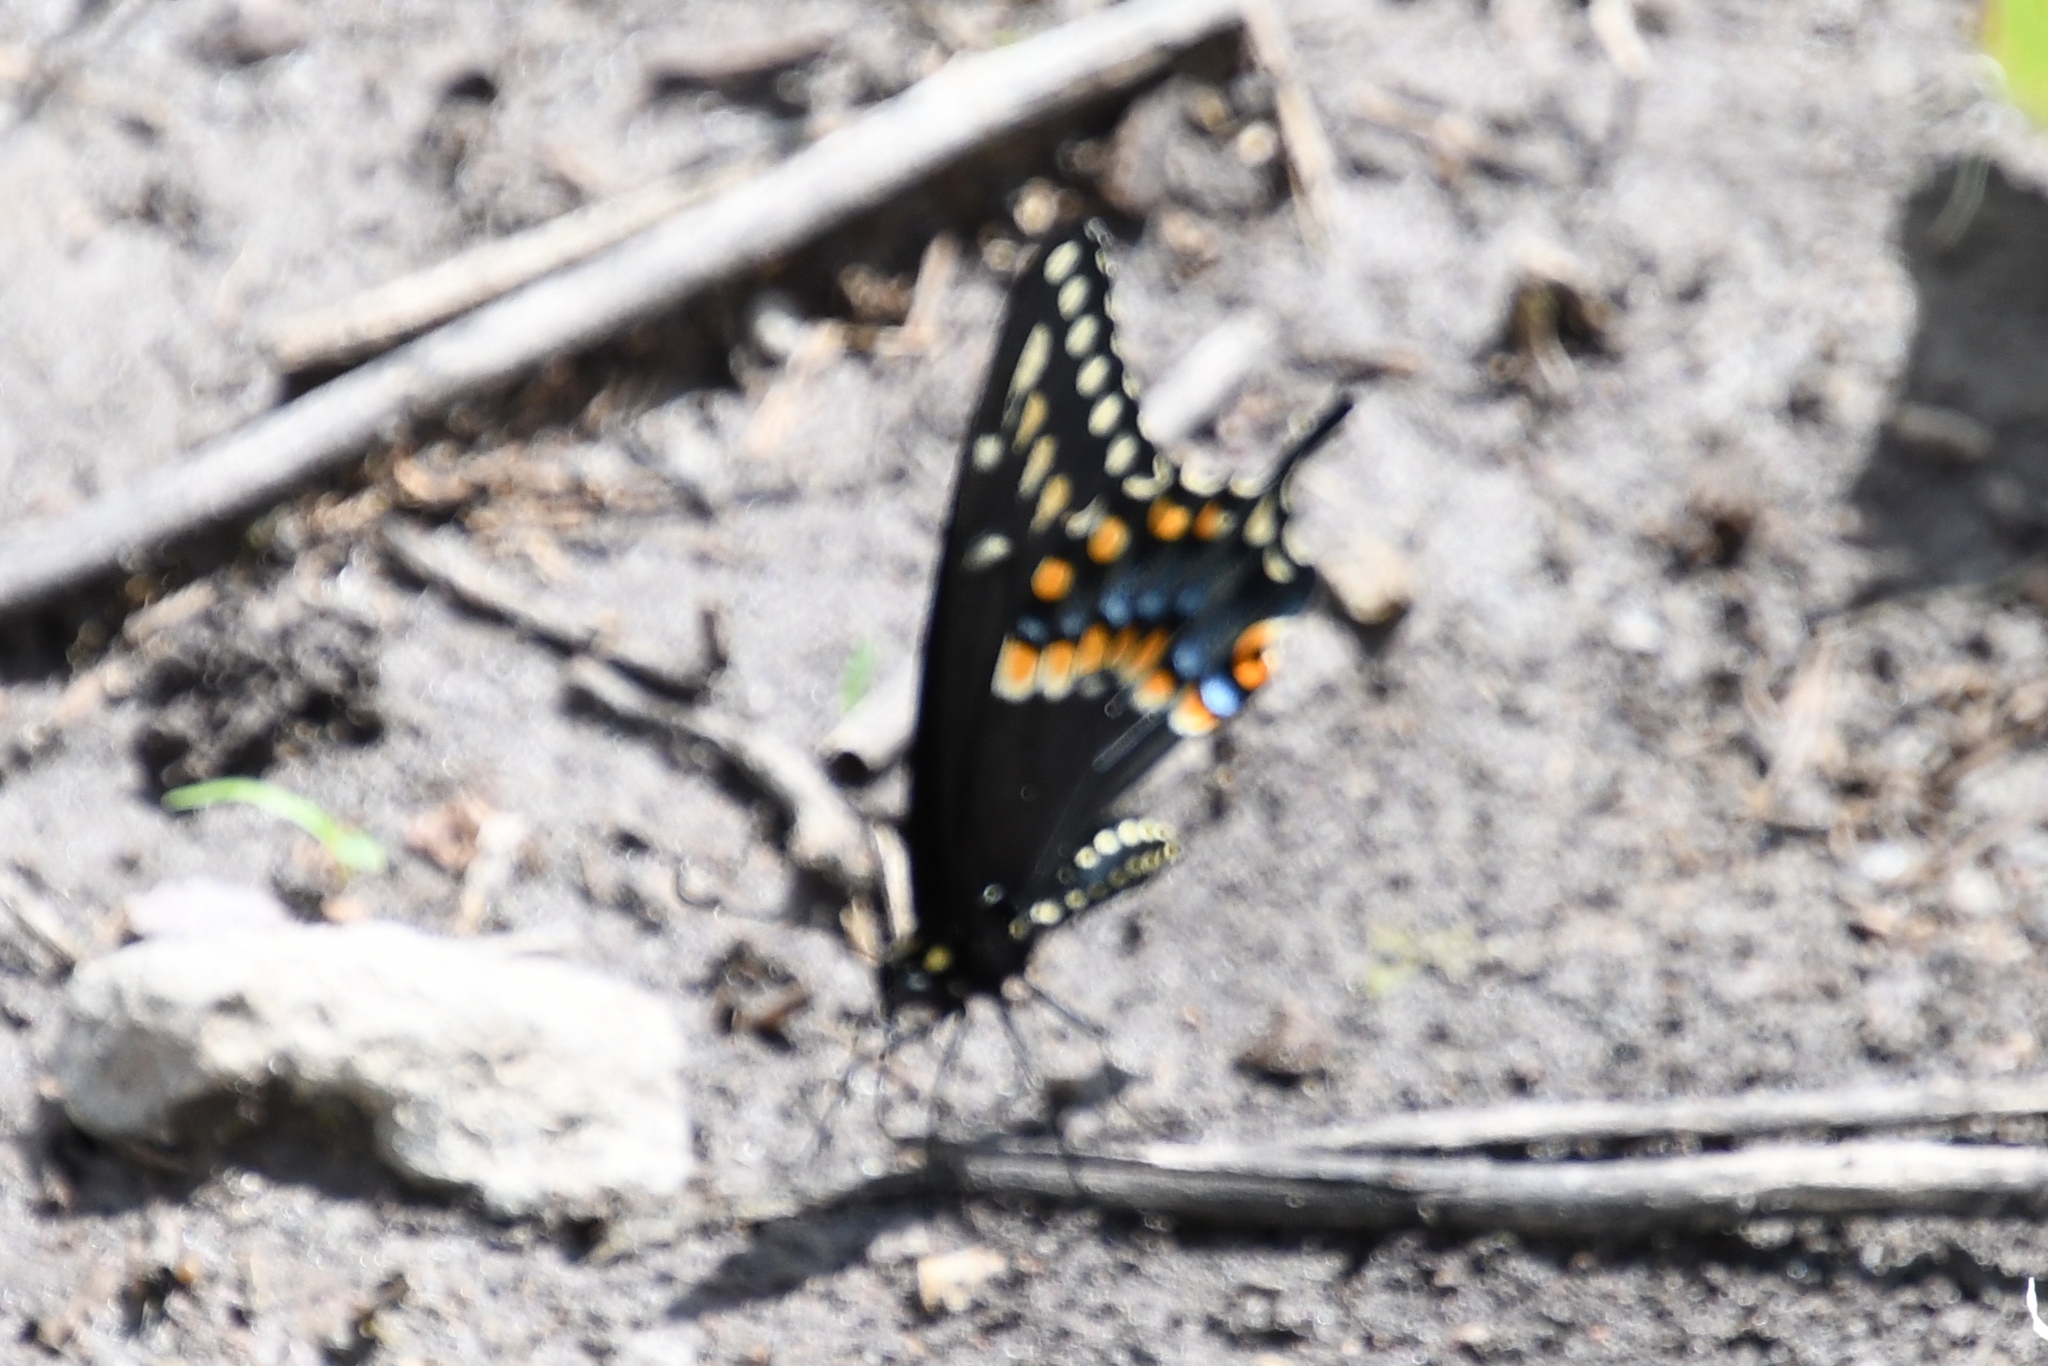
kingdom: Animalia
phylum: Arthropoda
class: Insecta
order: Lepidoptera
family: Papilionidae
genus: Papilio
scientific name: Papilio polyxenes
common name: Black swallowtail
